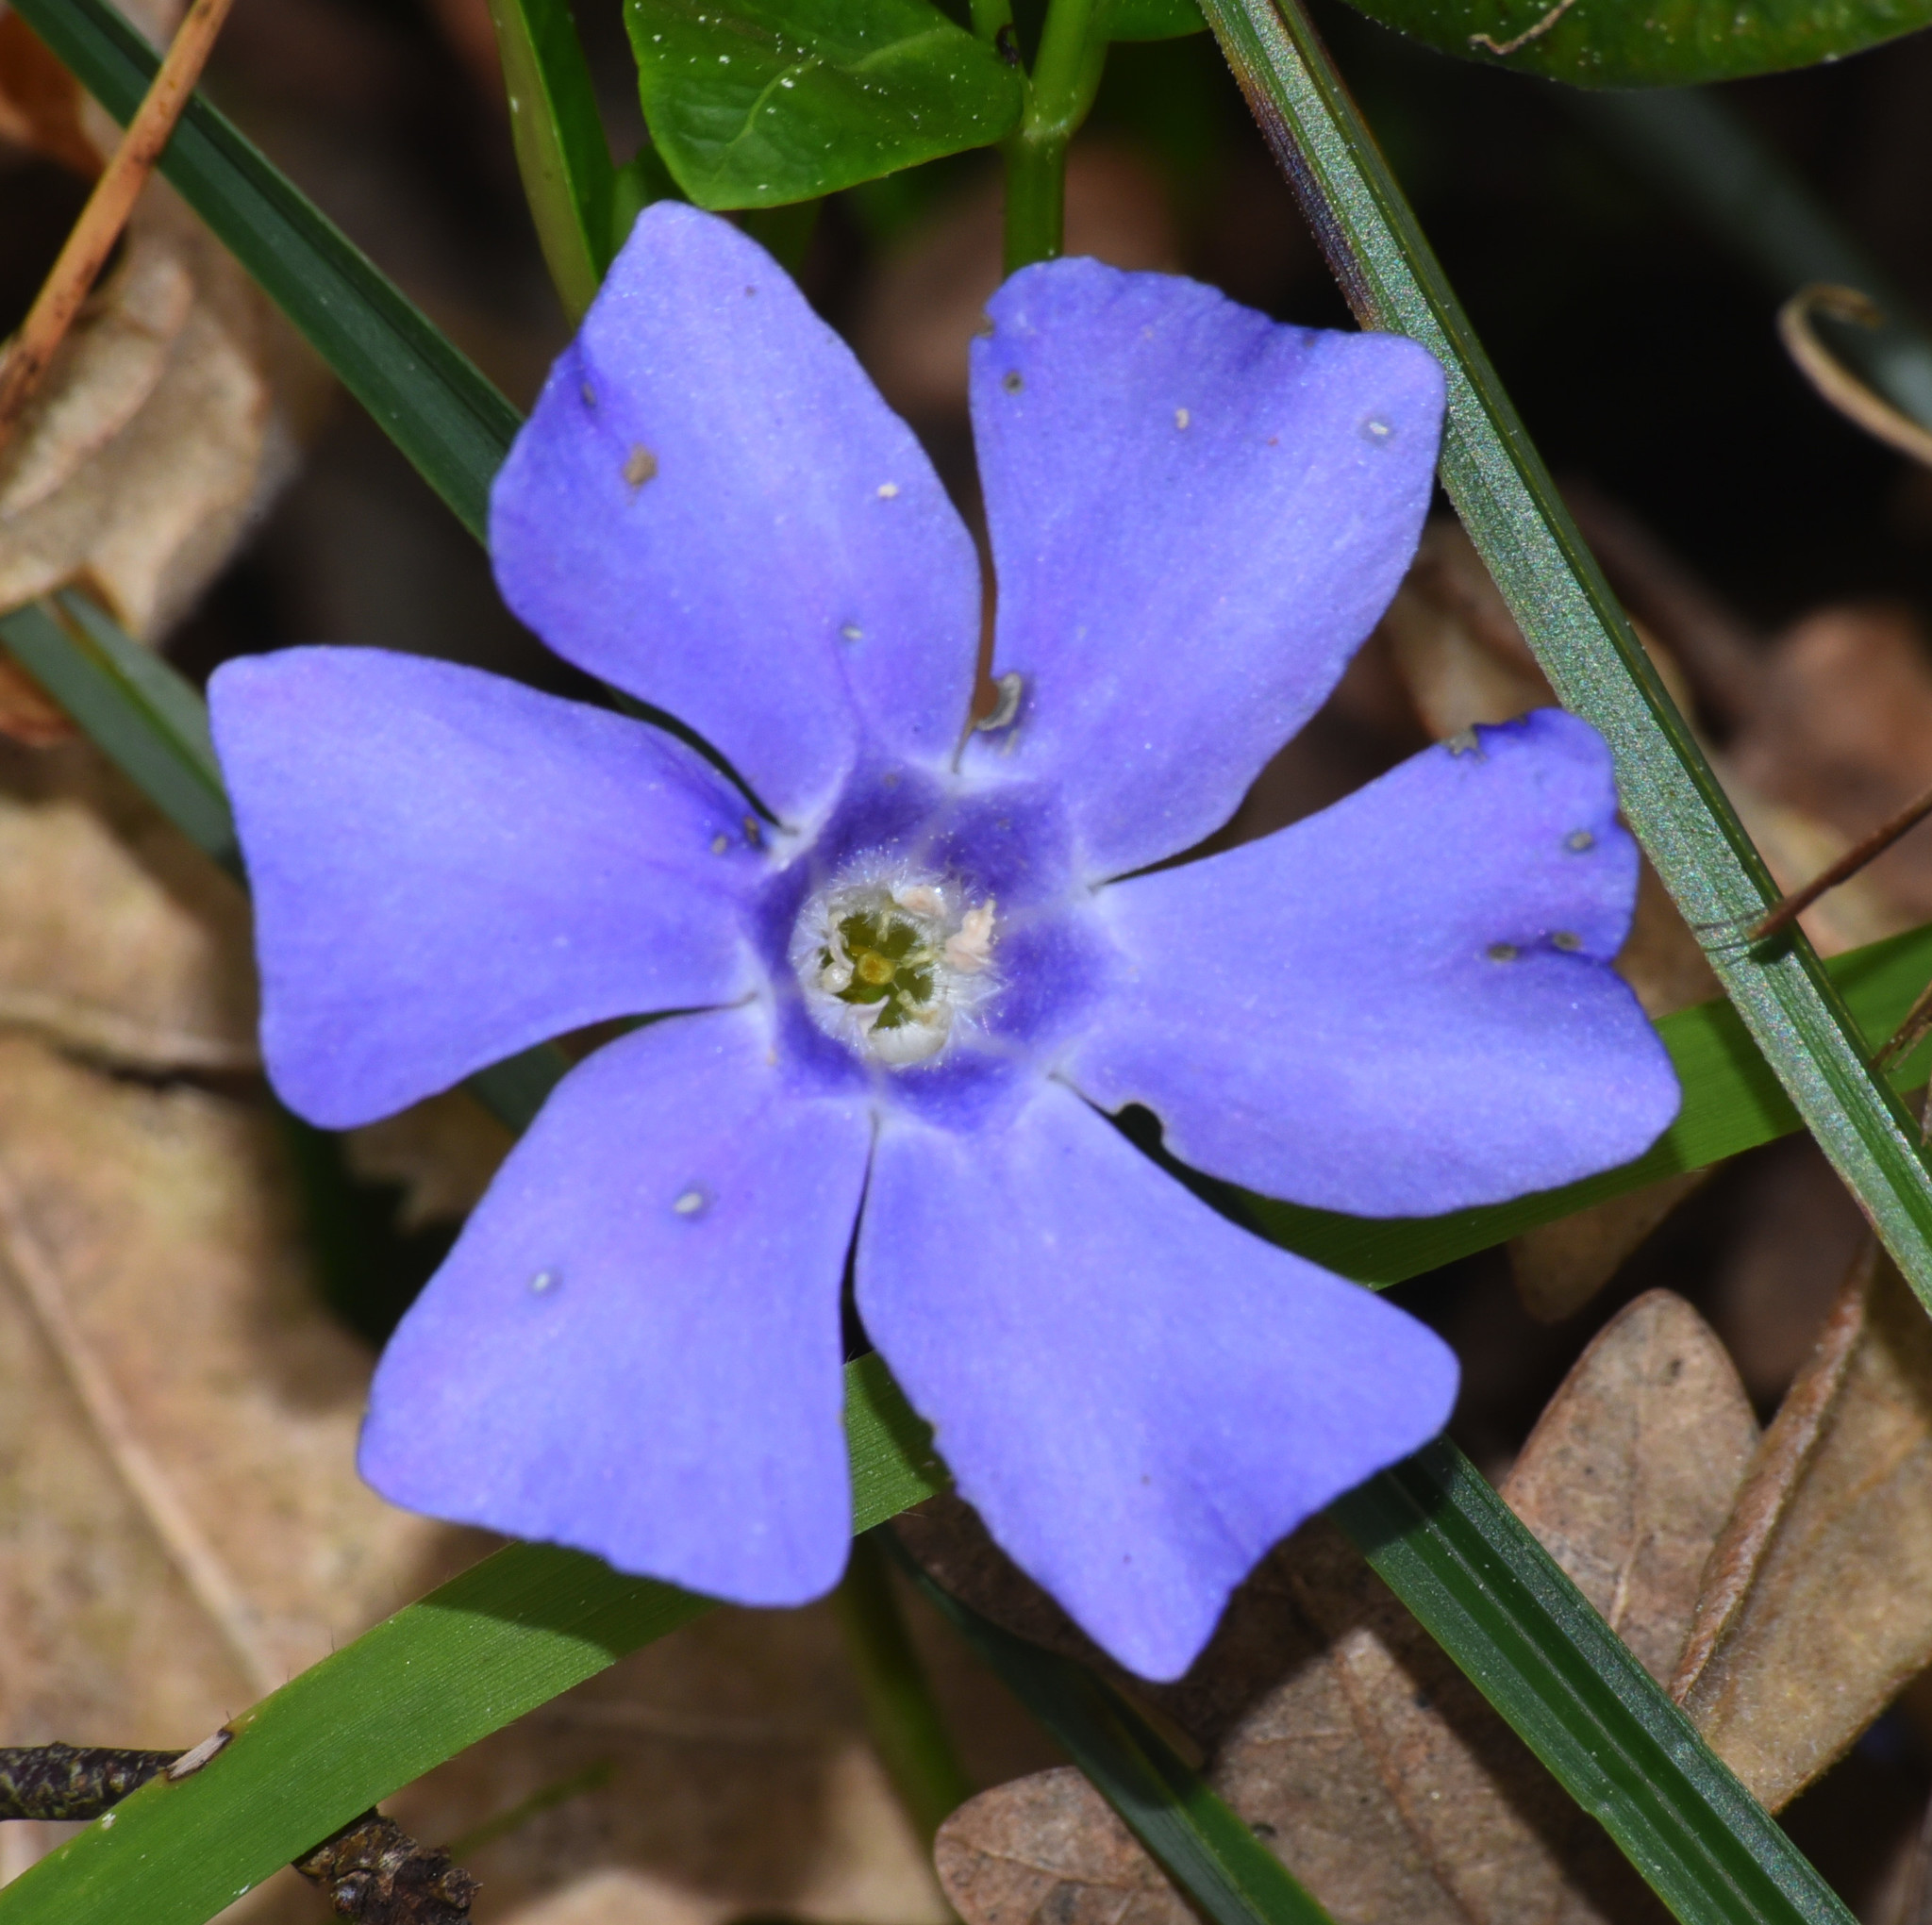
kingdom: Plantae
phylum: Tracheophyta
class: Magnoliopsida
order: Gentianales
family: Apocynaceae
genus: Vinca
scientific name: Vinca minor
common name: Lesser periwinkle
